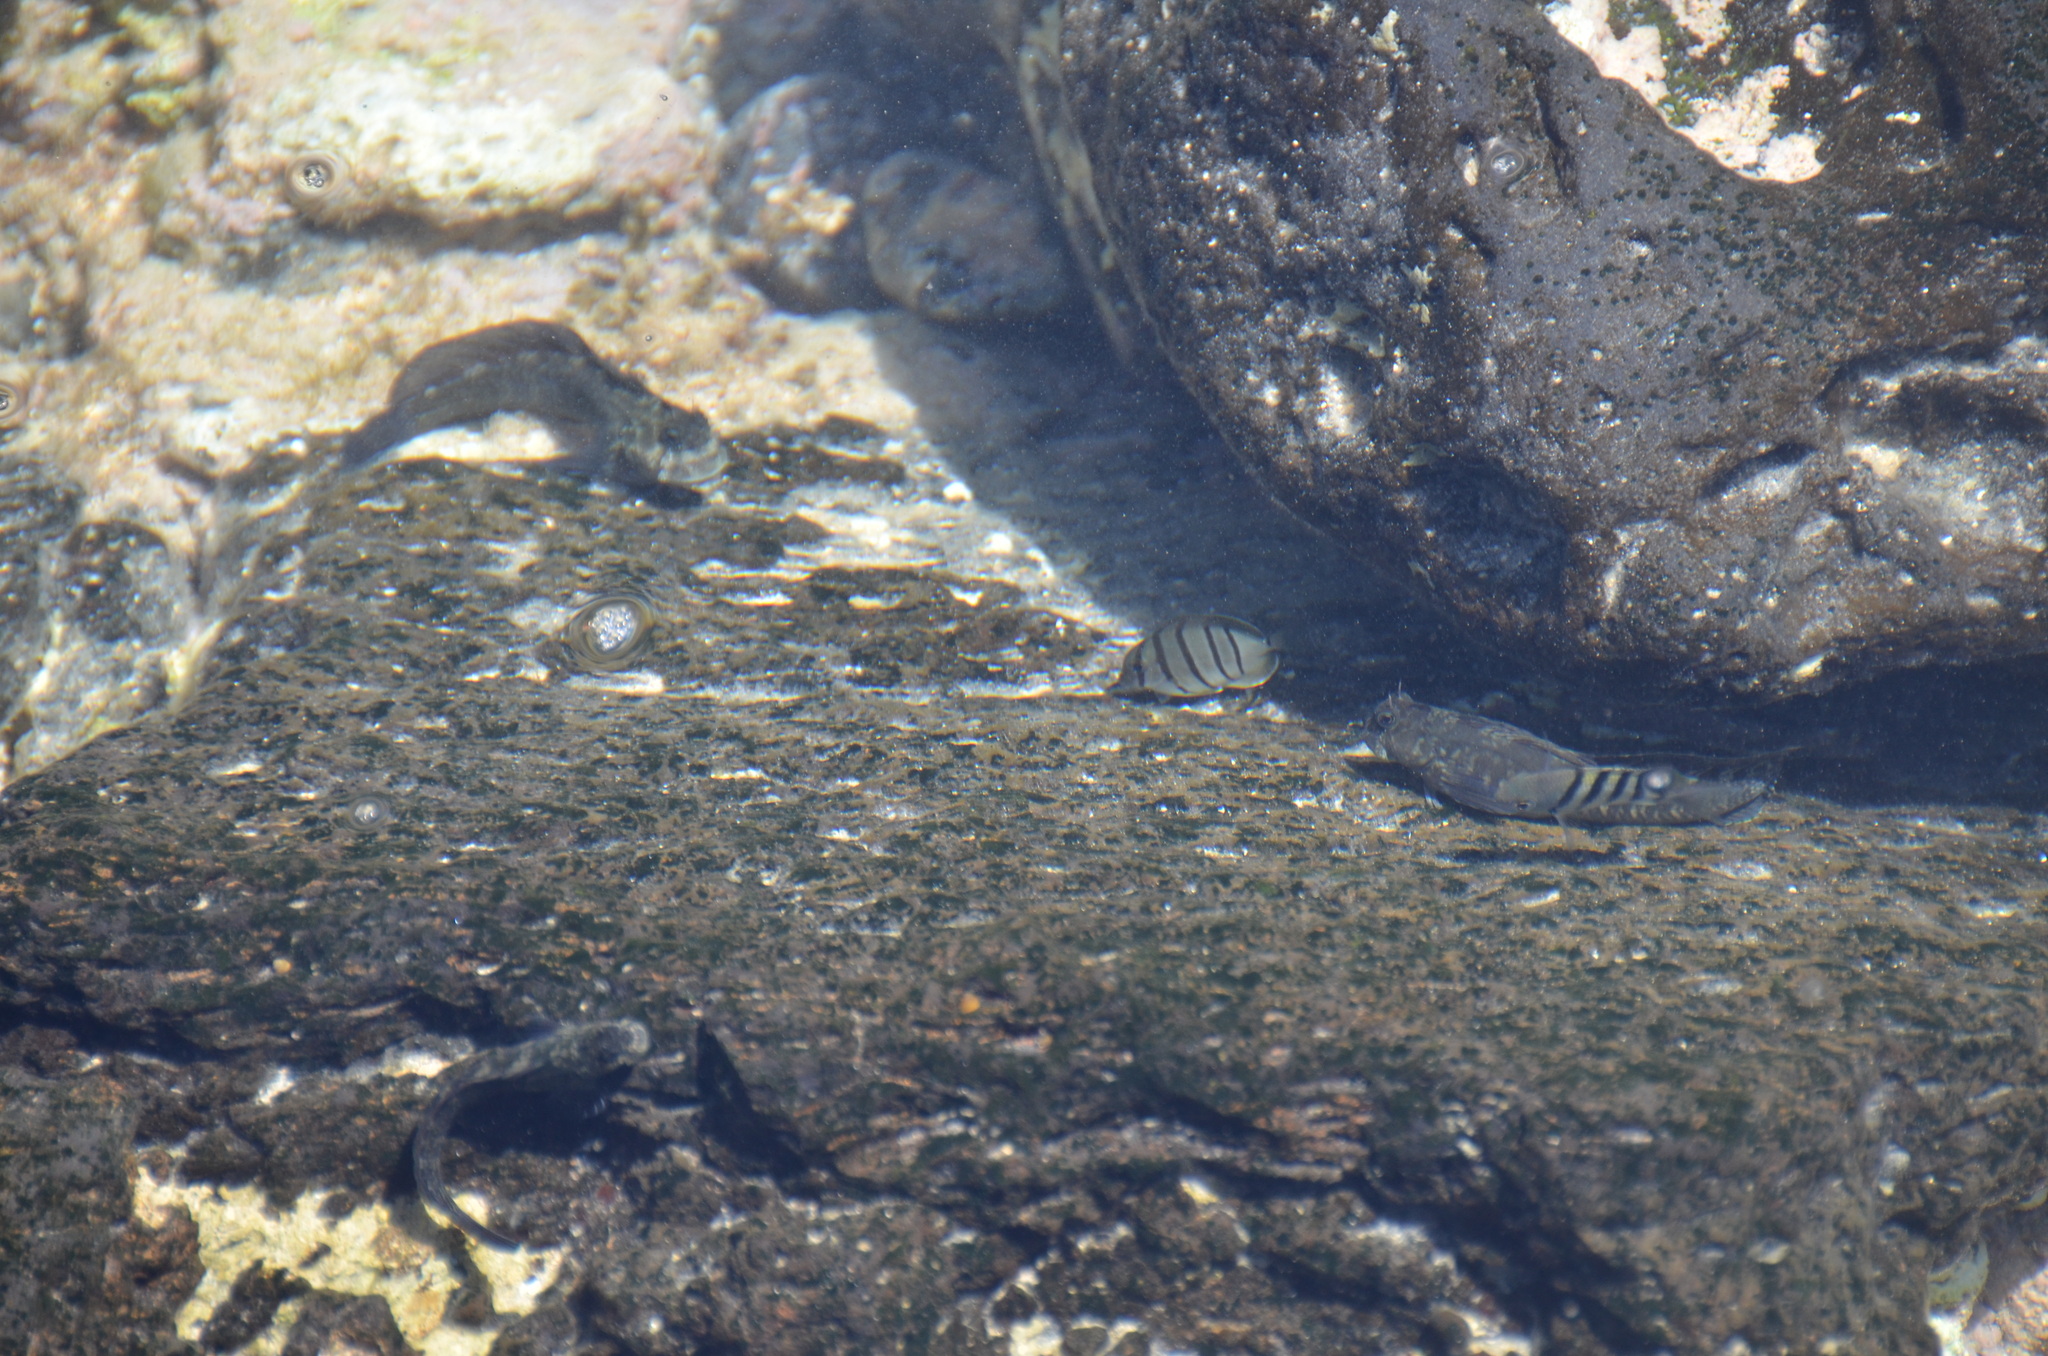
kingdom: Animalia
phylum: Chordata
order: Perciformes
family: Blenniidae
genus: Istiblennius
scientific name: Istiblennius zebra
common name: Zebra blenny
